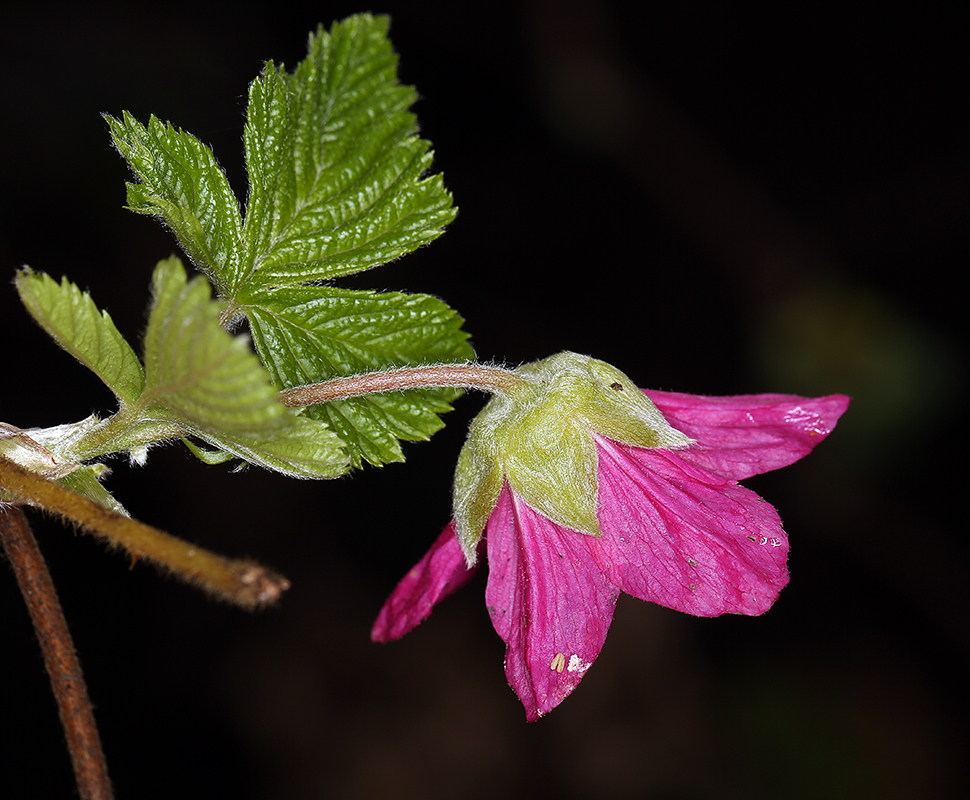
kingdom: Plantae
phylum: Tracheophyta
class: Magnoliopsida
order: Rosales
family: Rosaceae
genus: Rubus
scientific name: Rubus spectabilis
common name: Salmonberry
